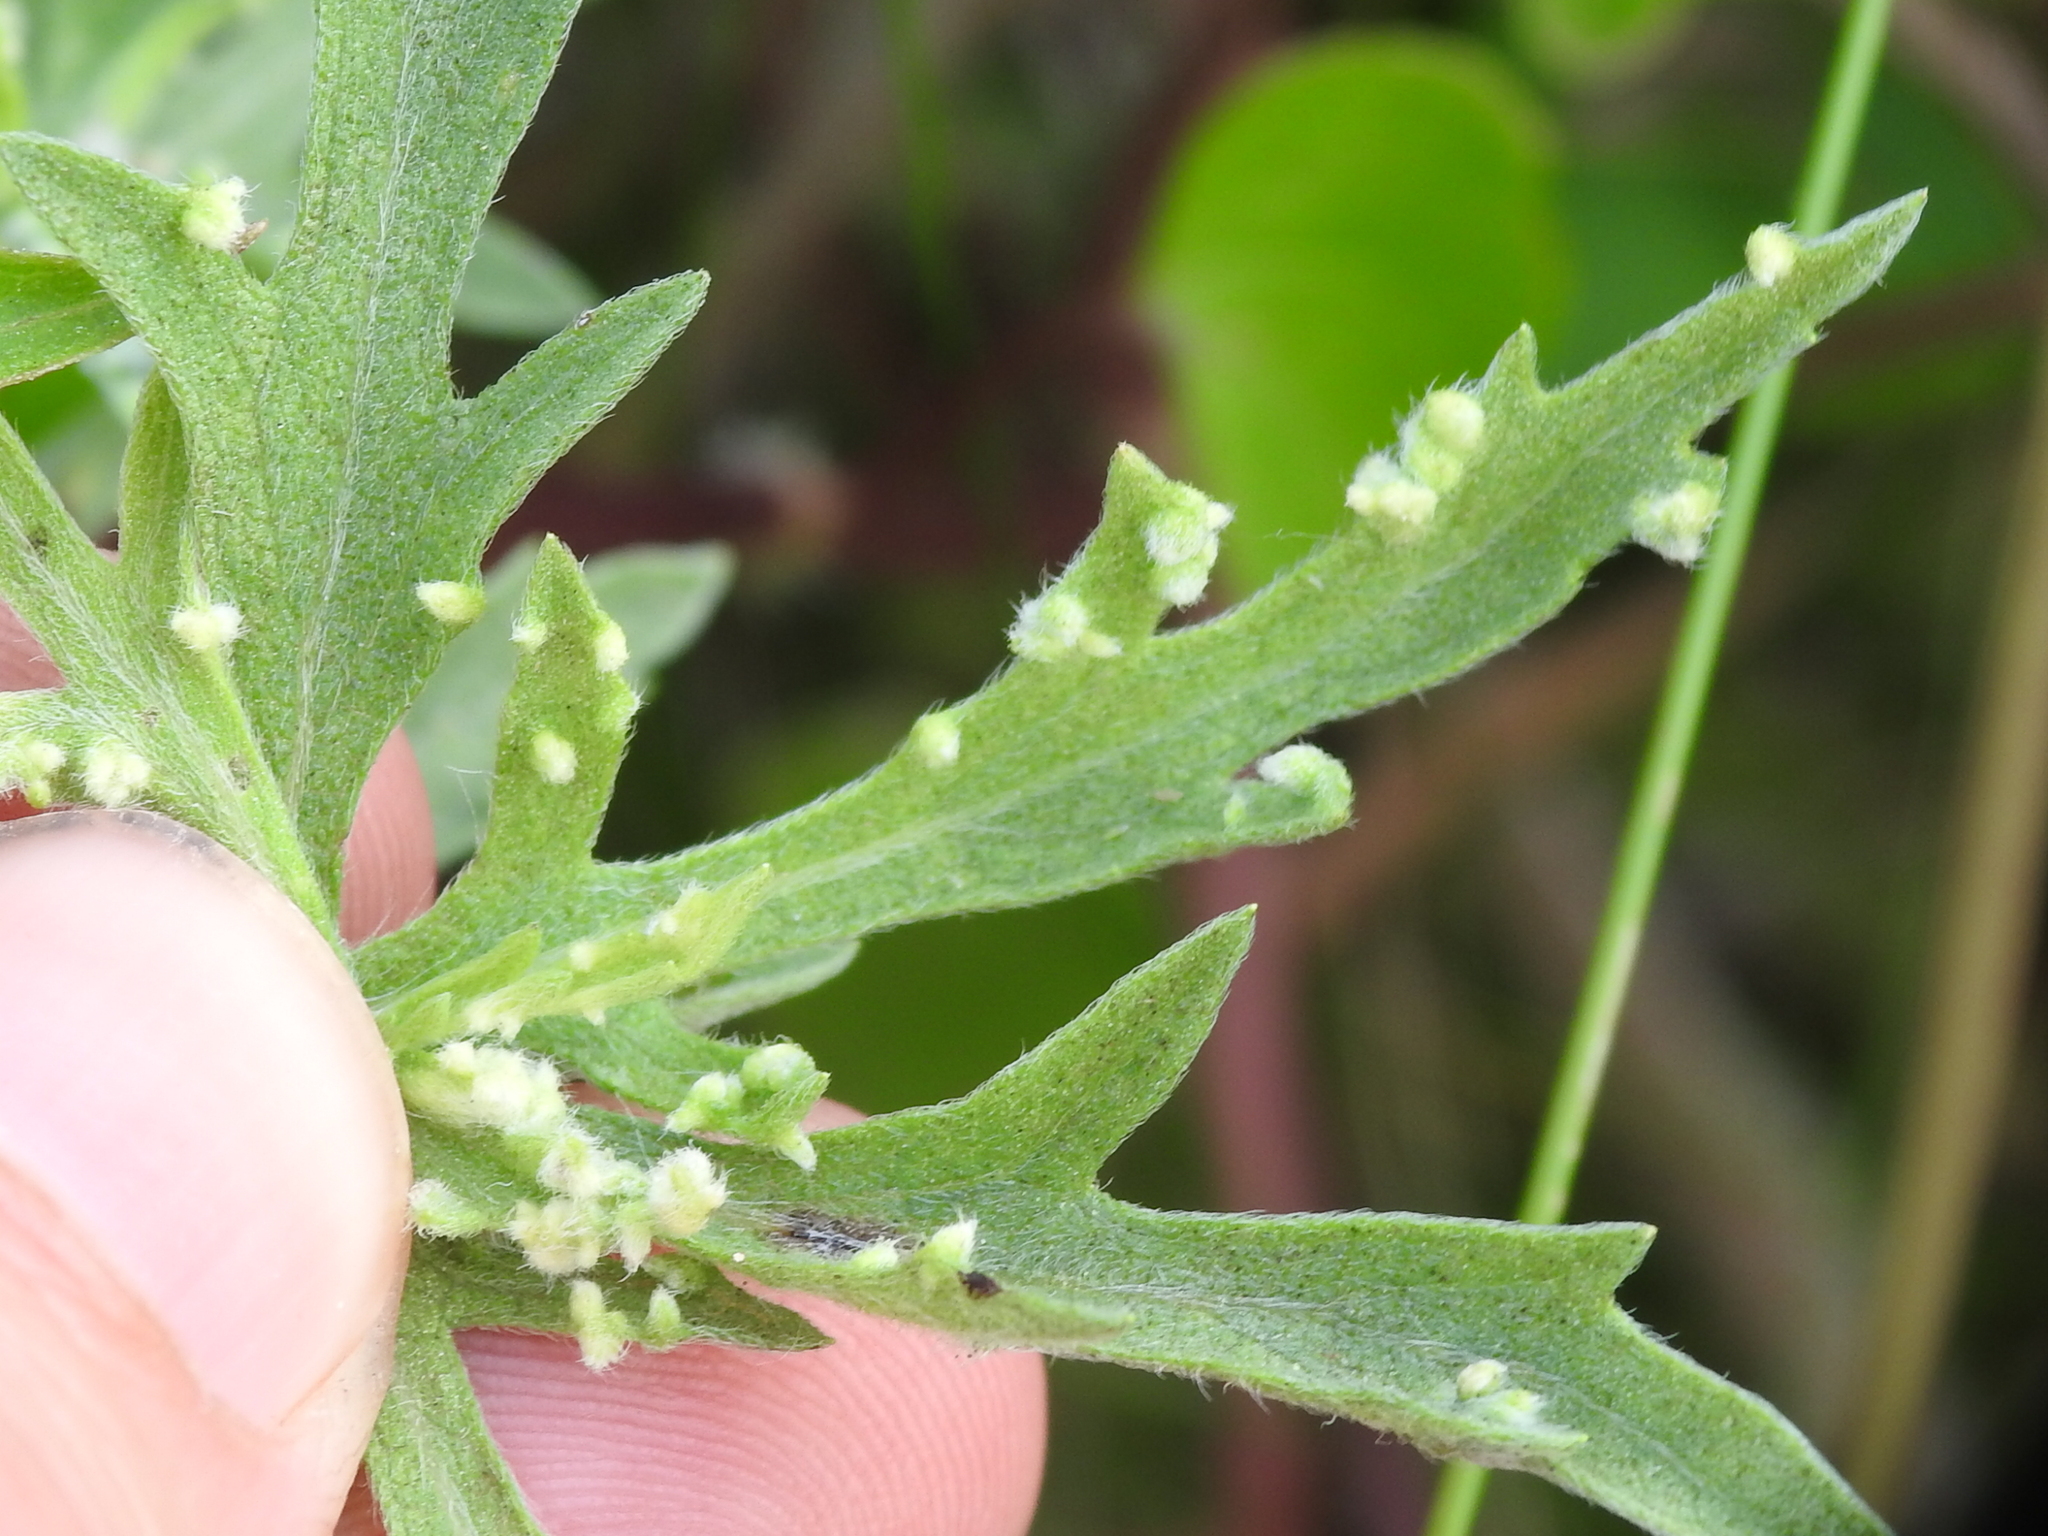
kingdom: Animalia
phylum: Arthropoda
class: Arachnida
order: Trombidiformes
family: Eriophyidae
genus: Aceria
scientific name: Aceria
